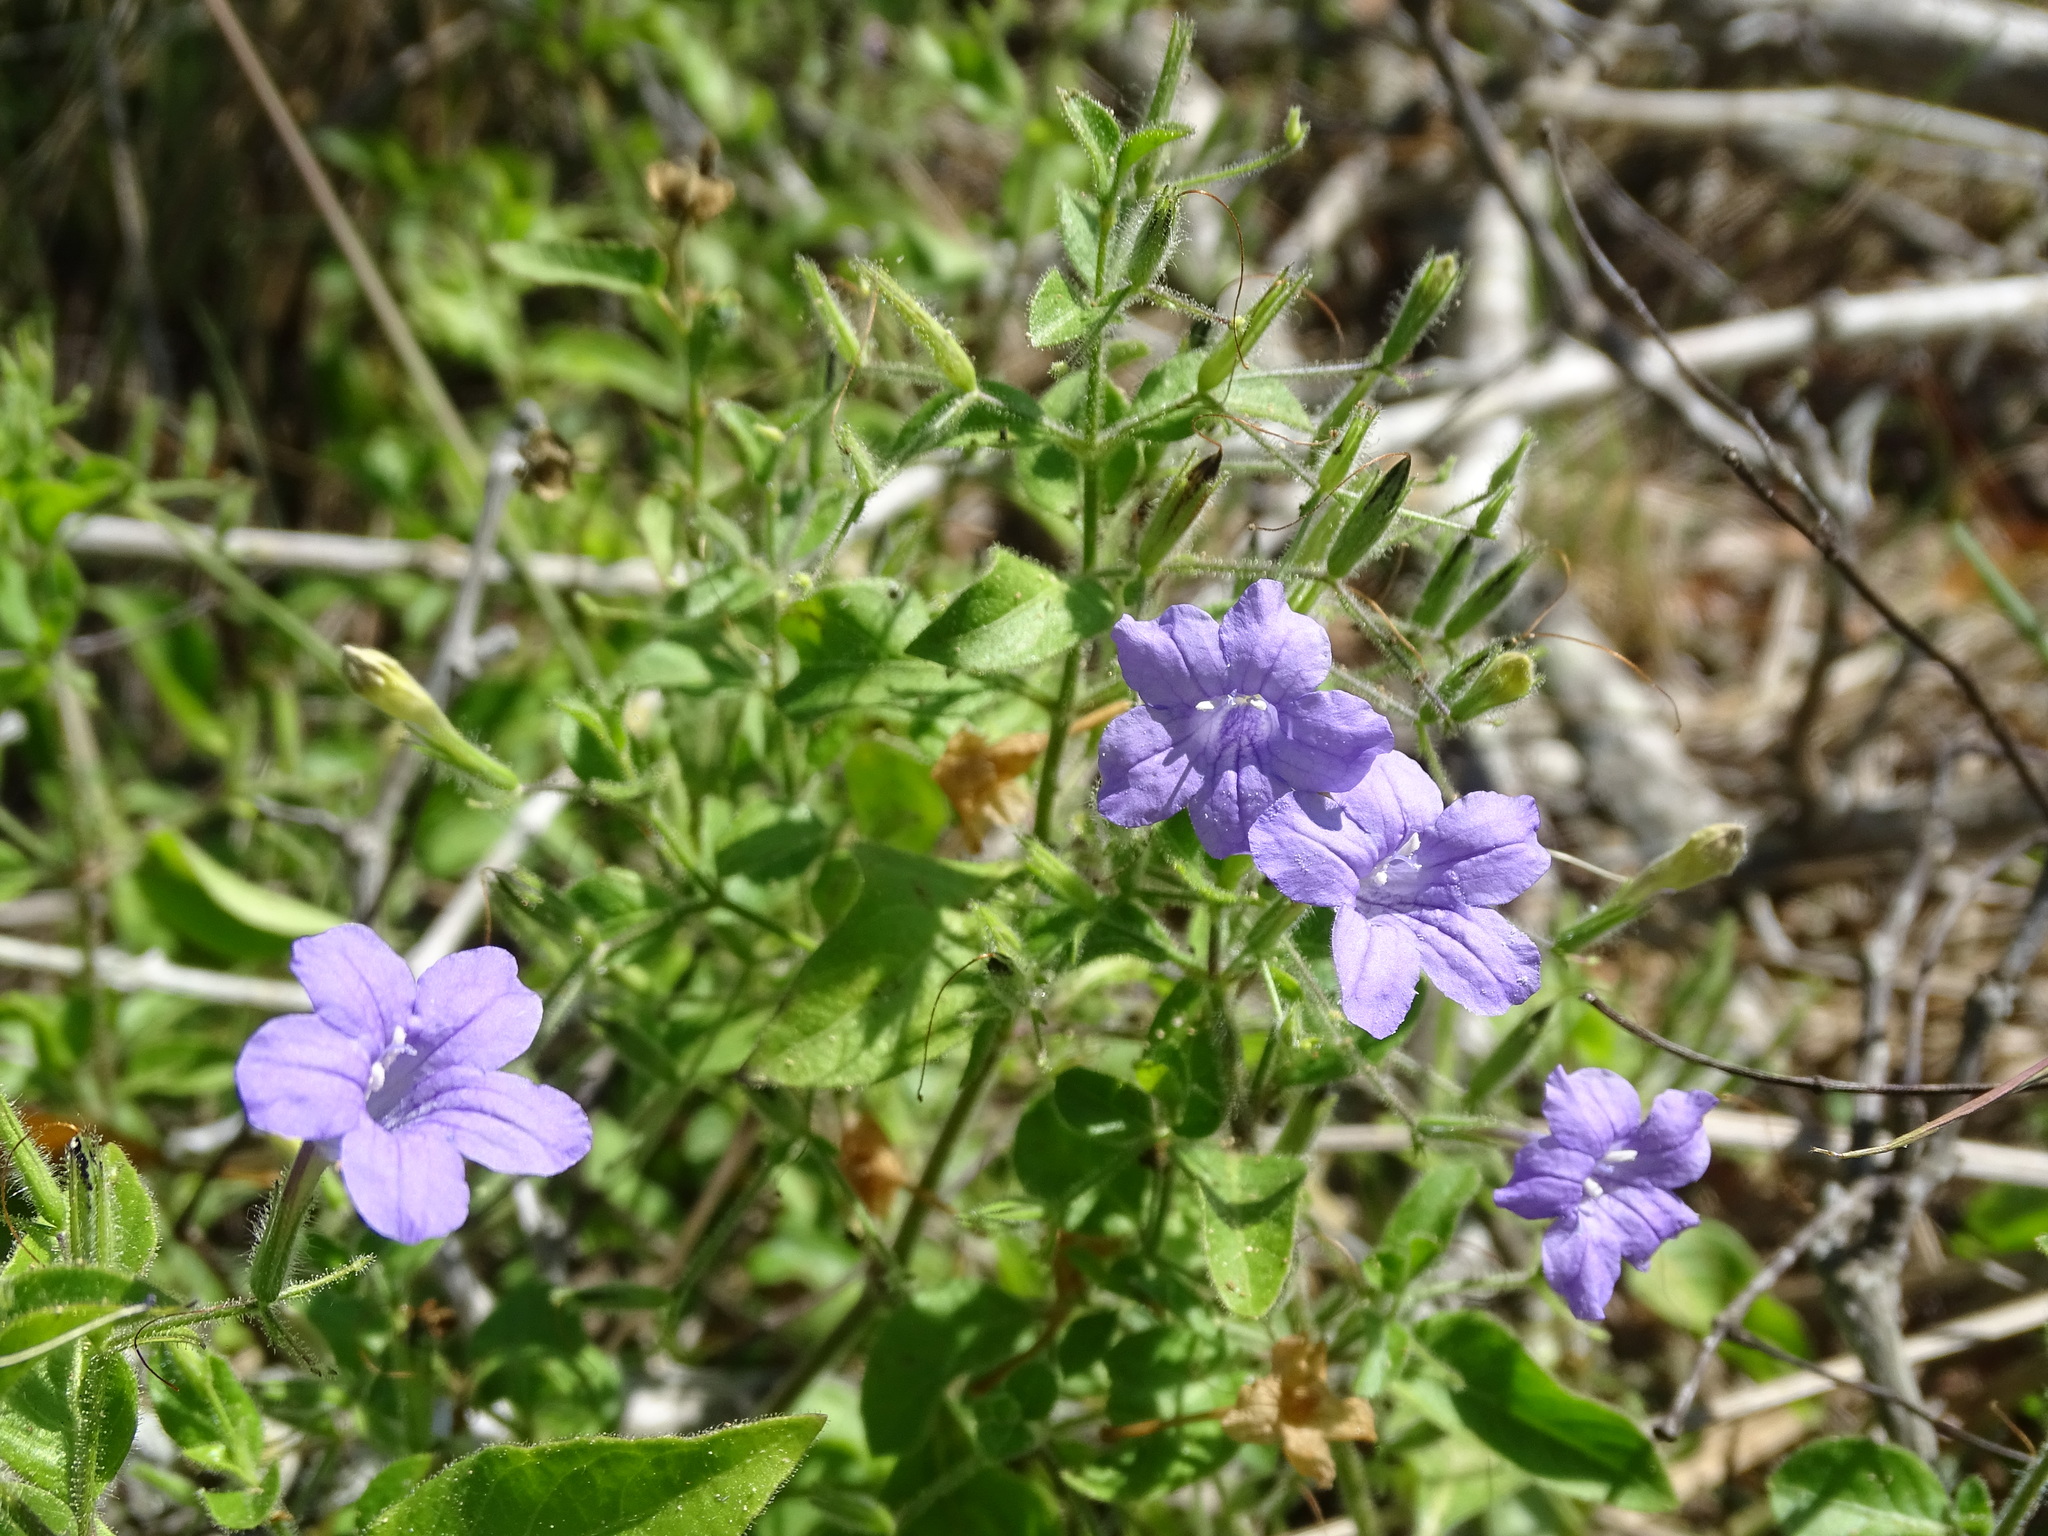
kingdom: Plantae
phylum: Tracheophyta
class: Magnoliopsida
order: Lamiales
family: Acanthaceae
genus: Ruellia
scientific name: Ruellia paniculata
